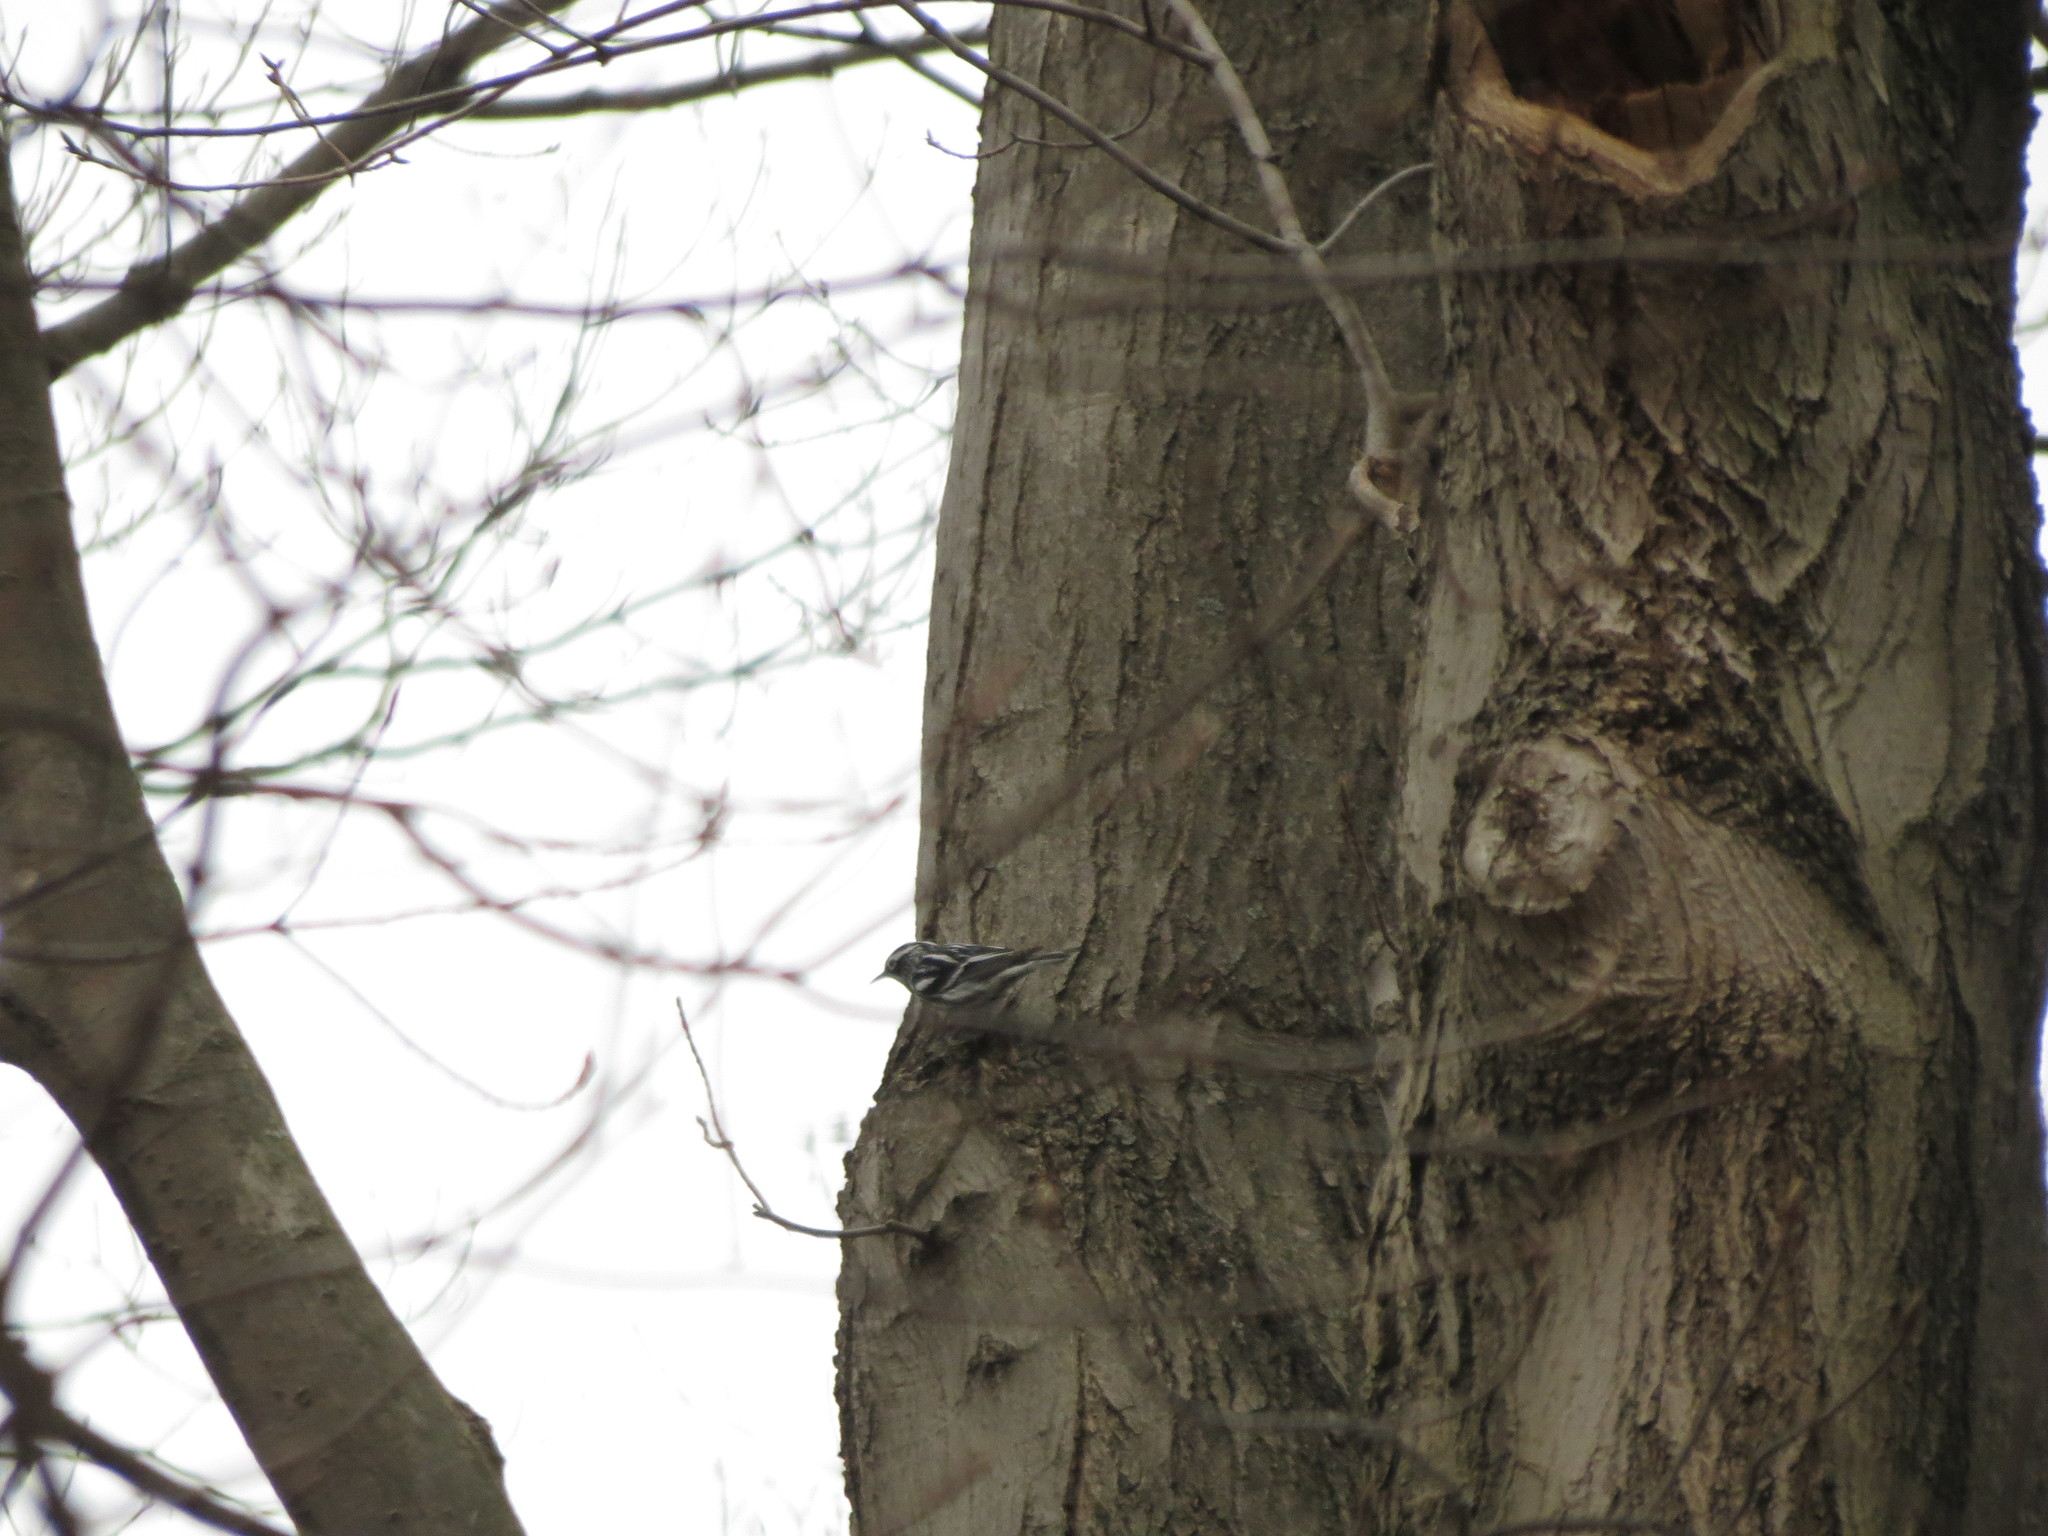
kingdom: Animalia
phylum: Chordata
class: Aves
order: Passeriformes
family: Parulidae
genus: Mniotilta
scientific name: Mniotilta varia
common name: Black-and-white warbler
